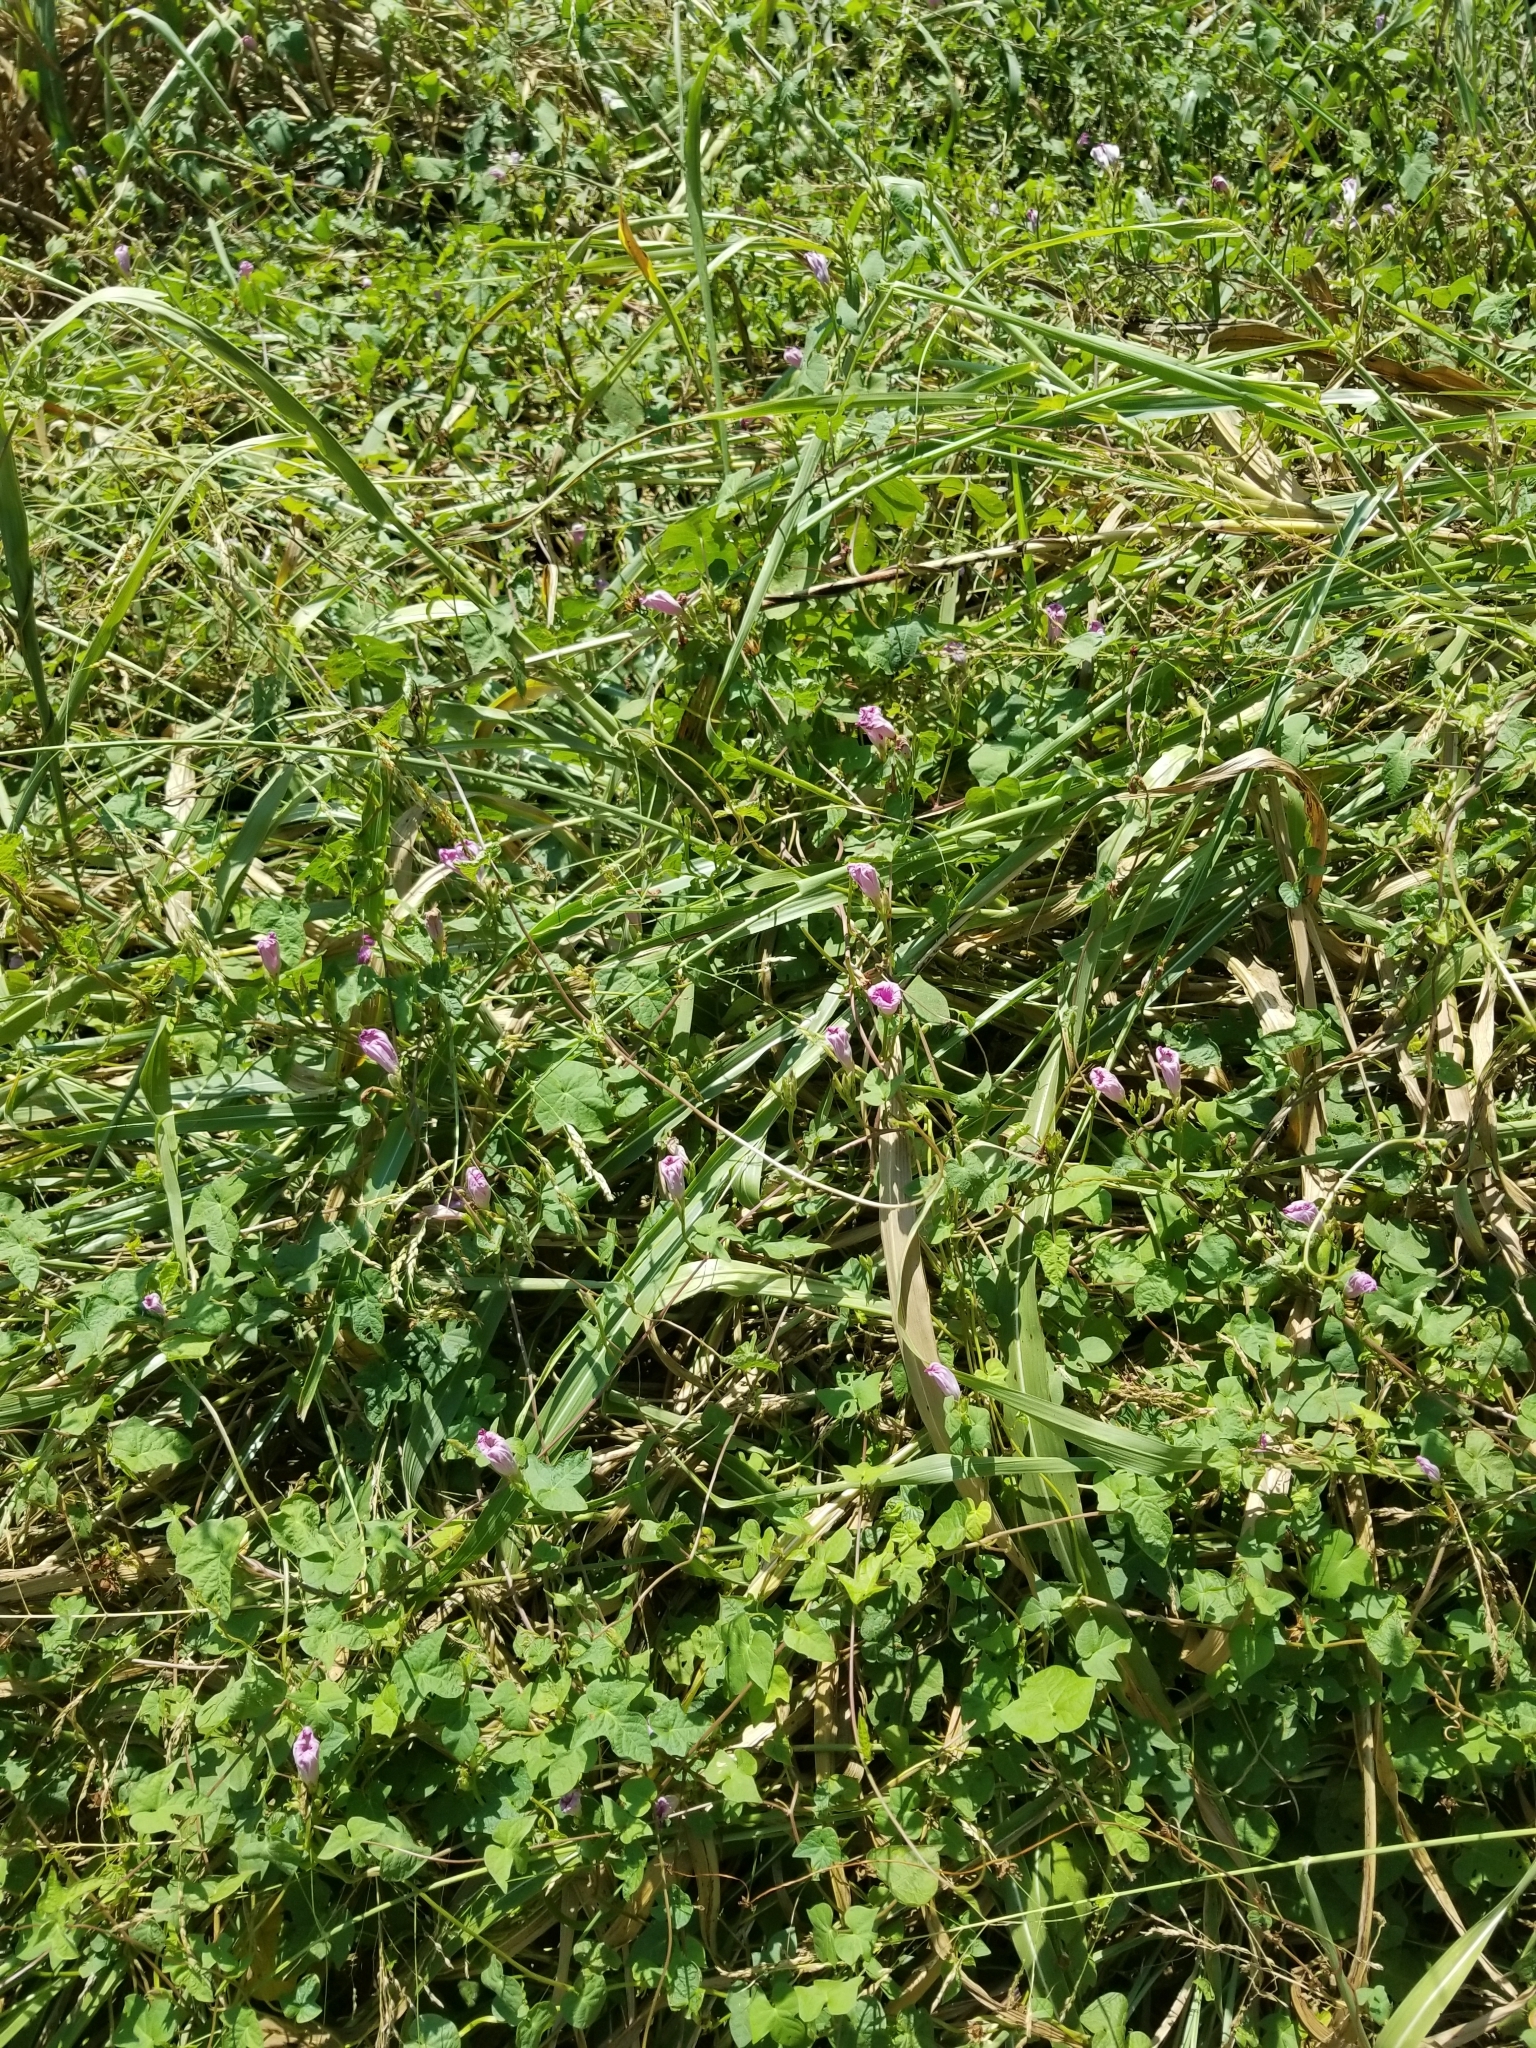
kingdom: Plantae
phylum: Tracheophyta
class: Magnoliopsida
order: Solanales
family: Convolvulaceae
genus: Ipomoea
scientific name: Ipomoea cordatotriloba
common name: Cotton morning glory
